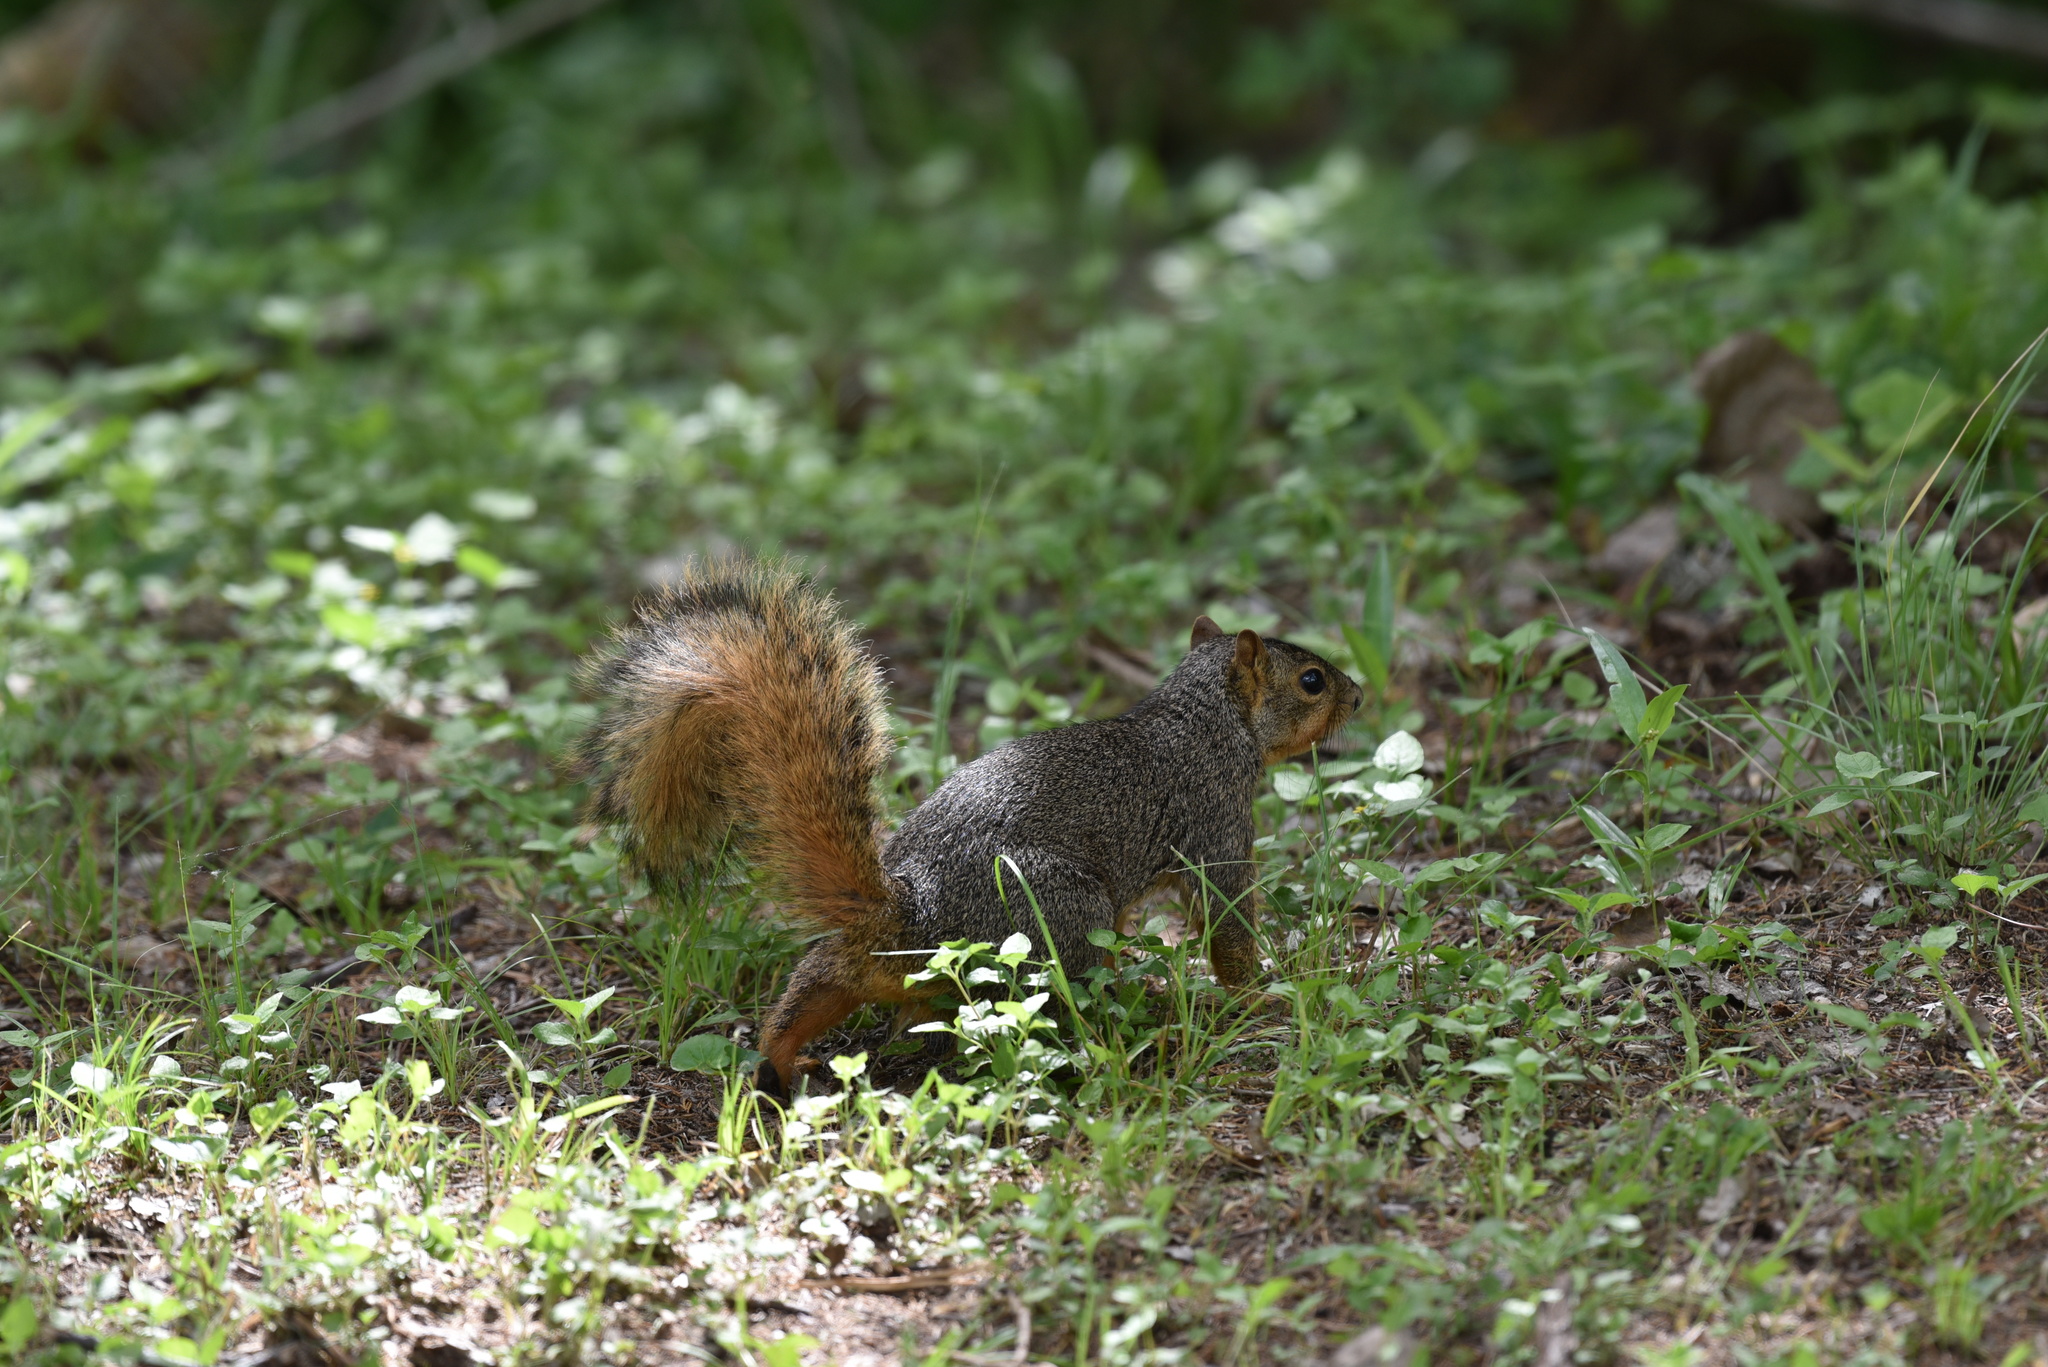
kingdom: Animalia
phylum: Chordata
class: Mammalia
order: Rodentia
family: Sciuridae
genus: Sciurus
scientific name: Sciurus niger
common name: Fox squirrel
